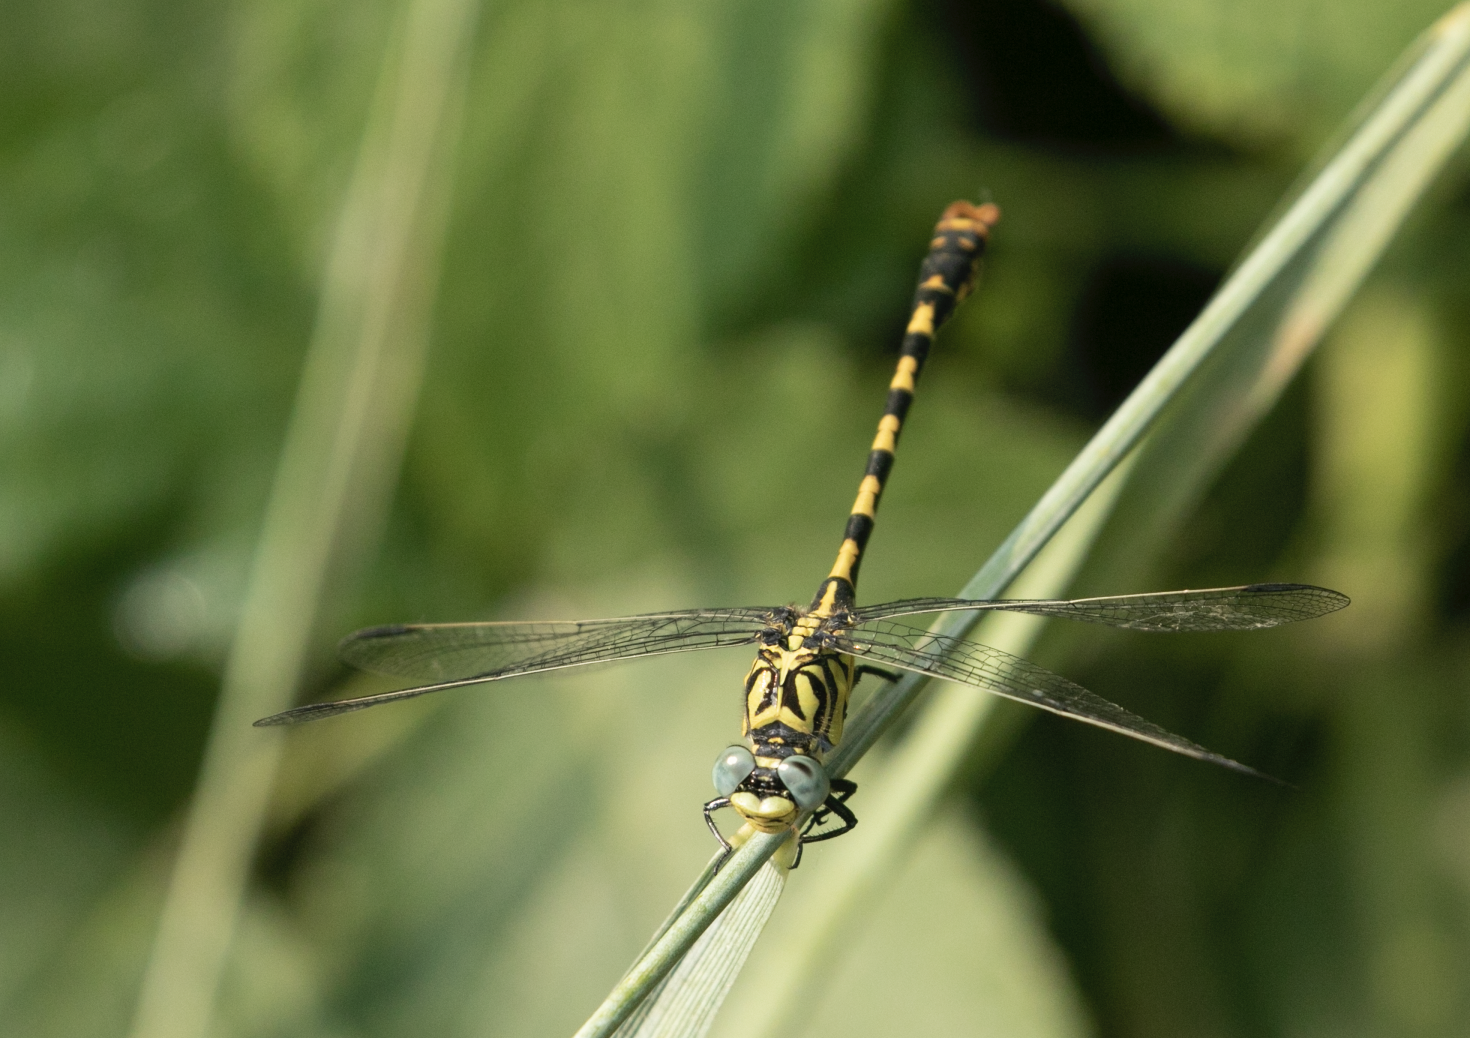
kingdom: Animalia
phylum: Arthropoda
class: Insecta
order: Odonata
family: Gomphidae
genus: Onychogomphus
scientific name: Onychogomphus forcipatus
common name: Small pincertail
